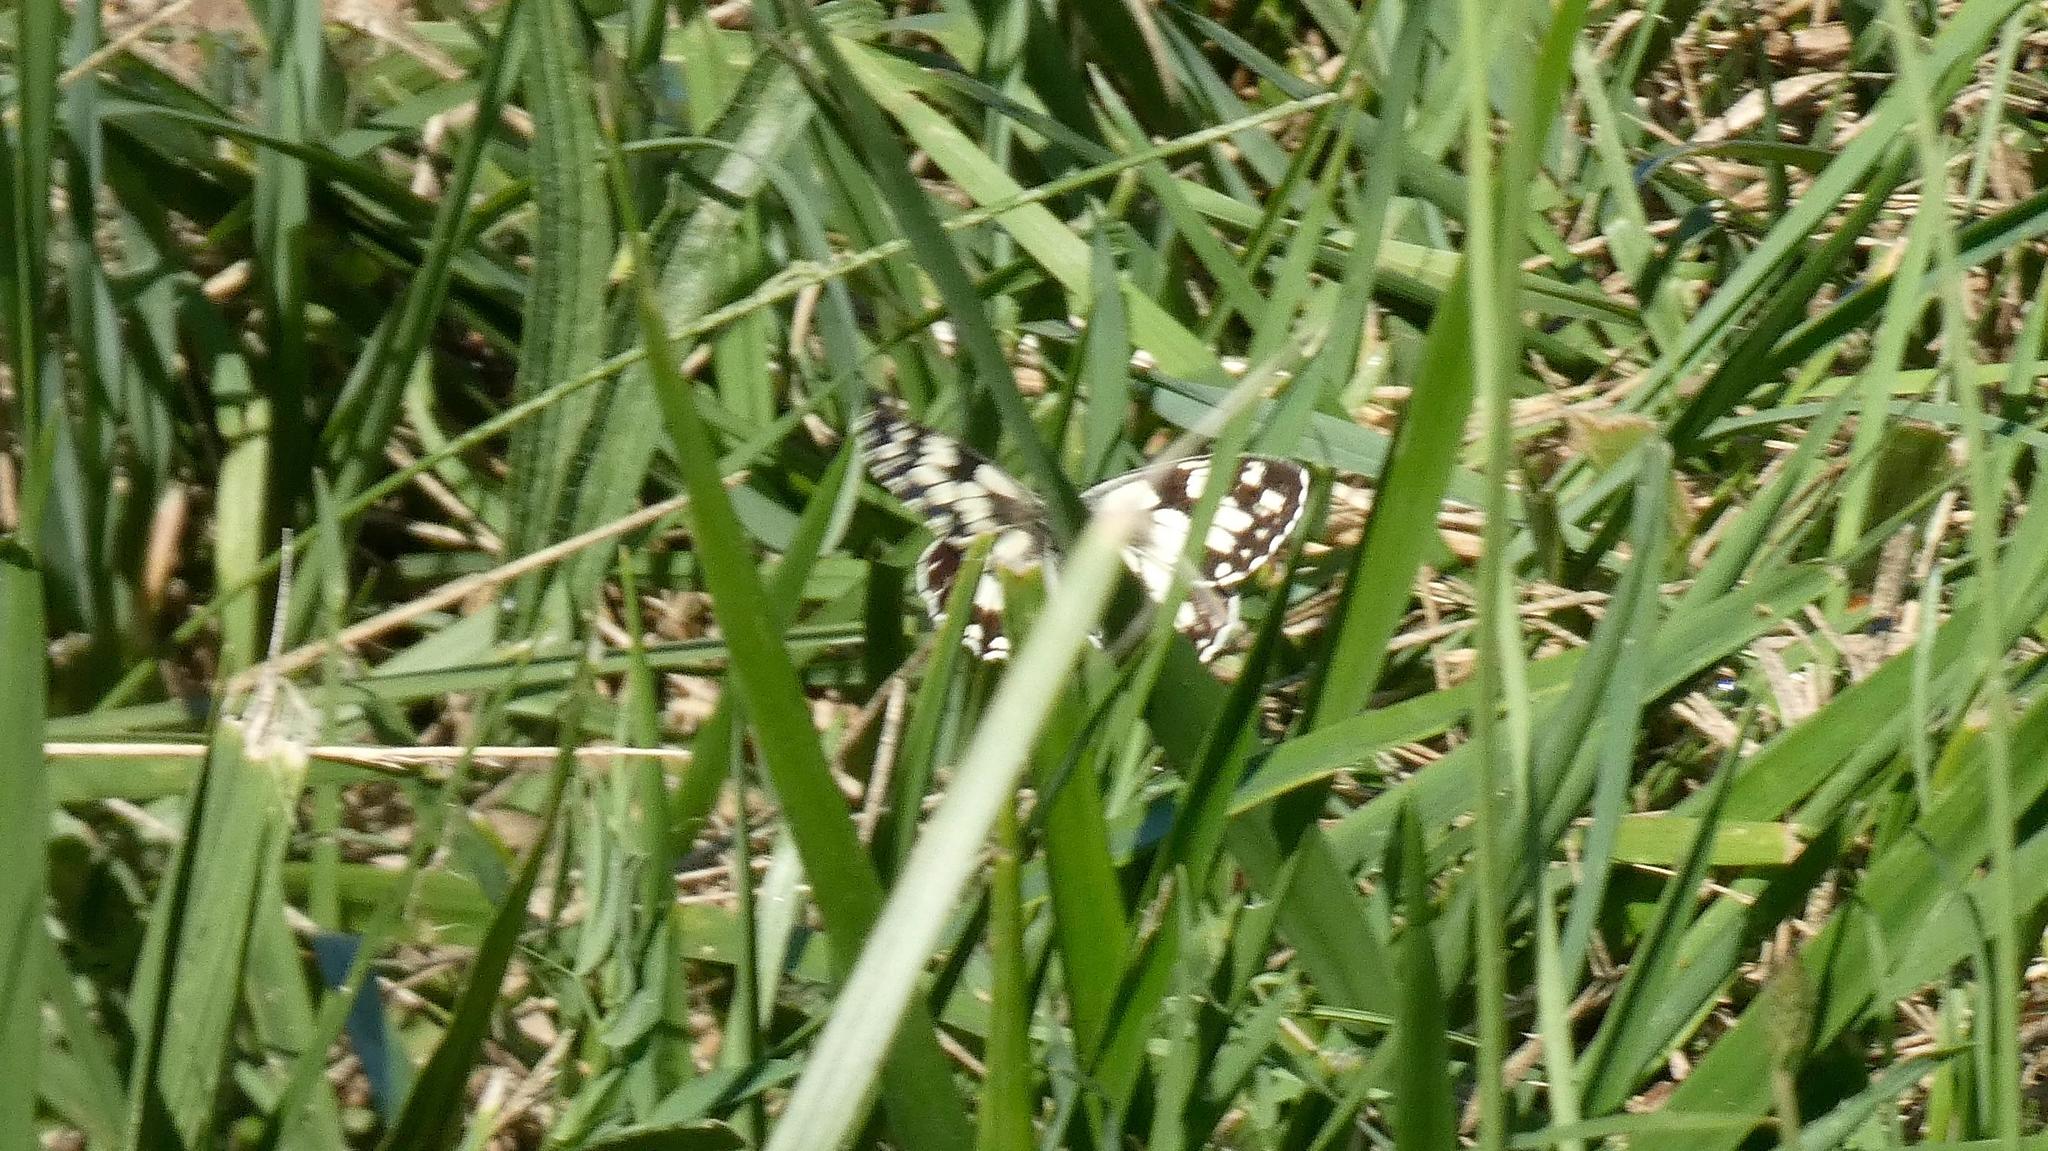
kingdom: Animalia
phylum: Arthropoda
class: Insecta
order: Lepidoptera
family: Nymphalidae
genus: Melanargia
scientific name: Melanargia galathea
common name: Marbled white
